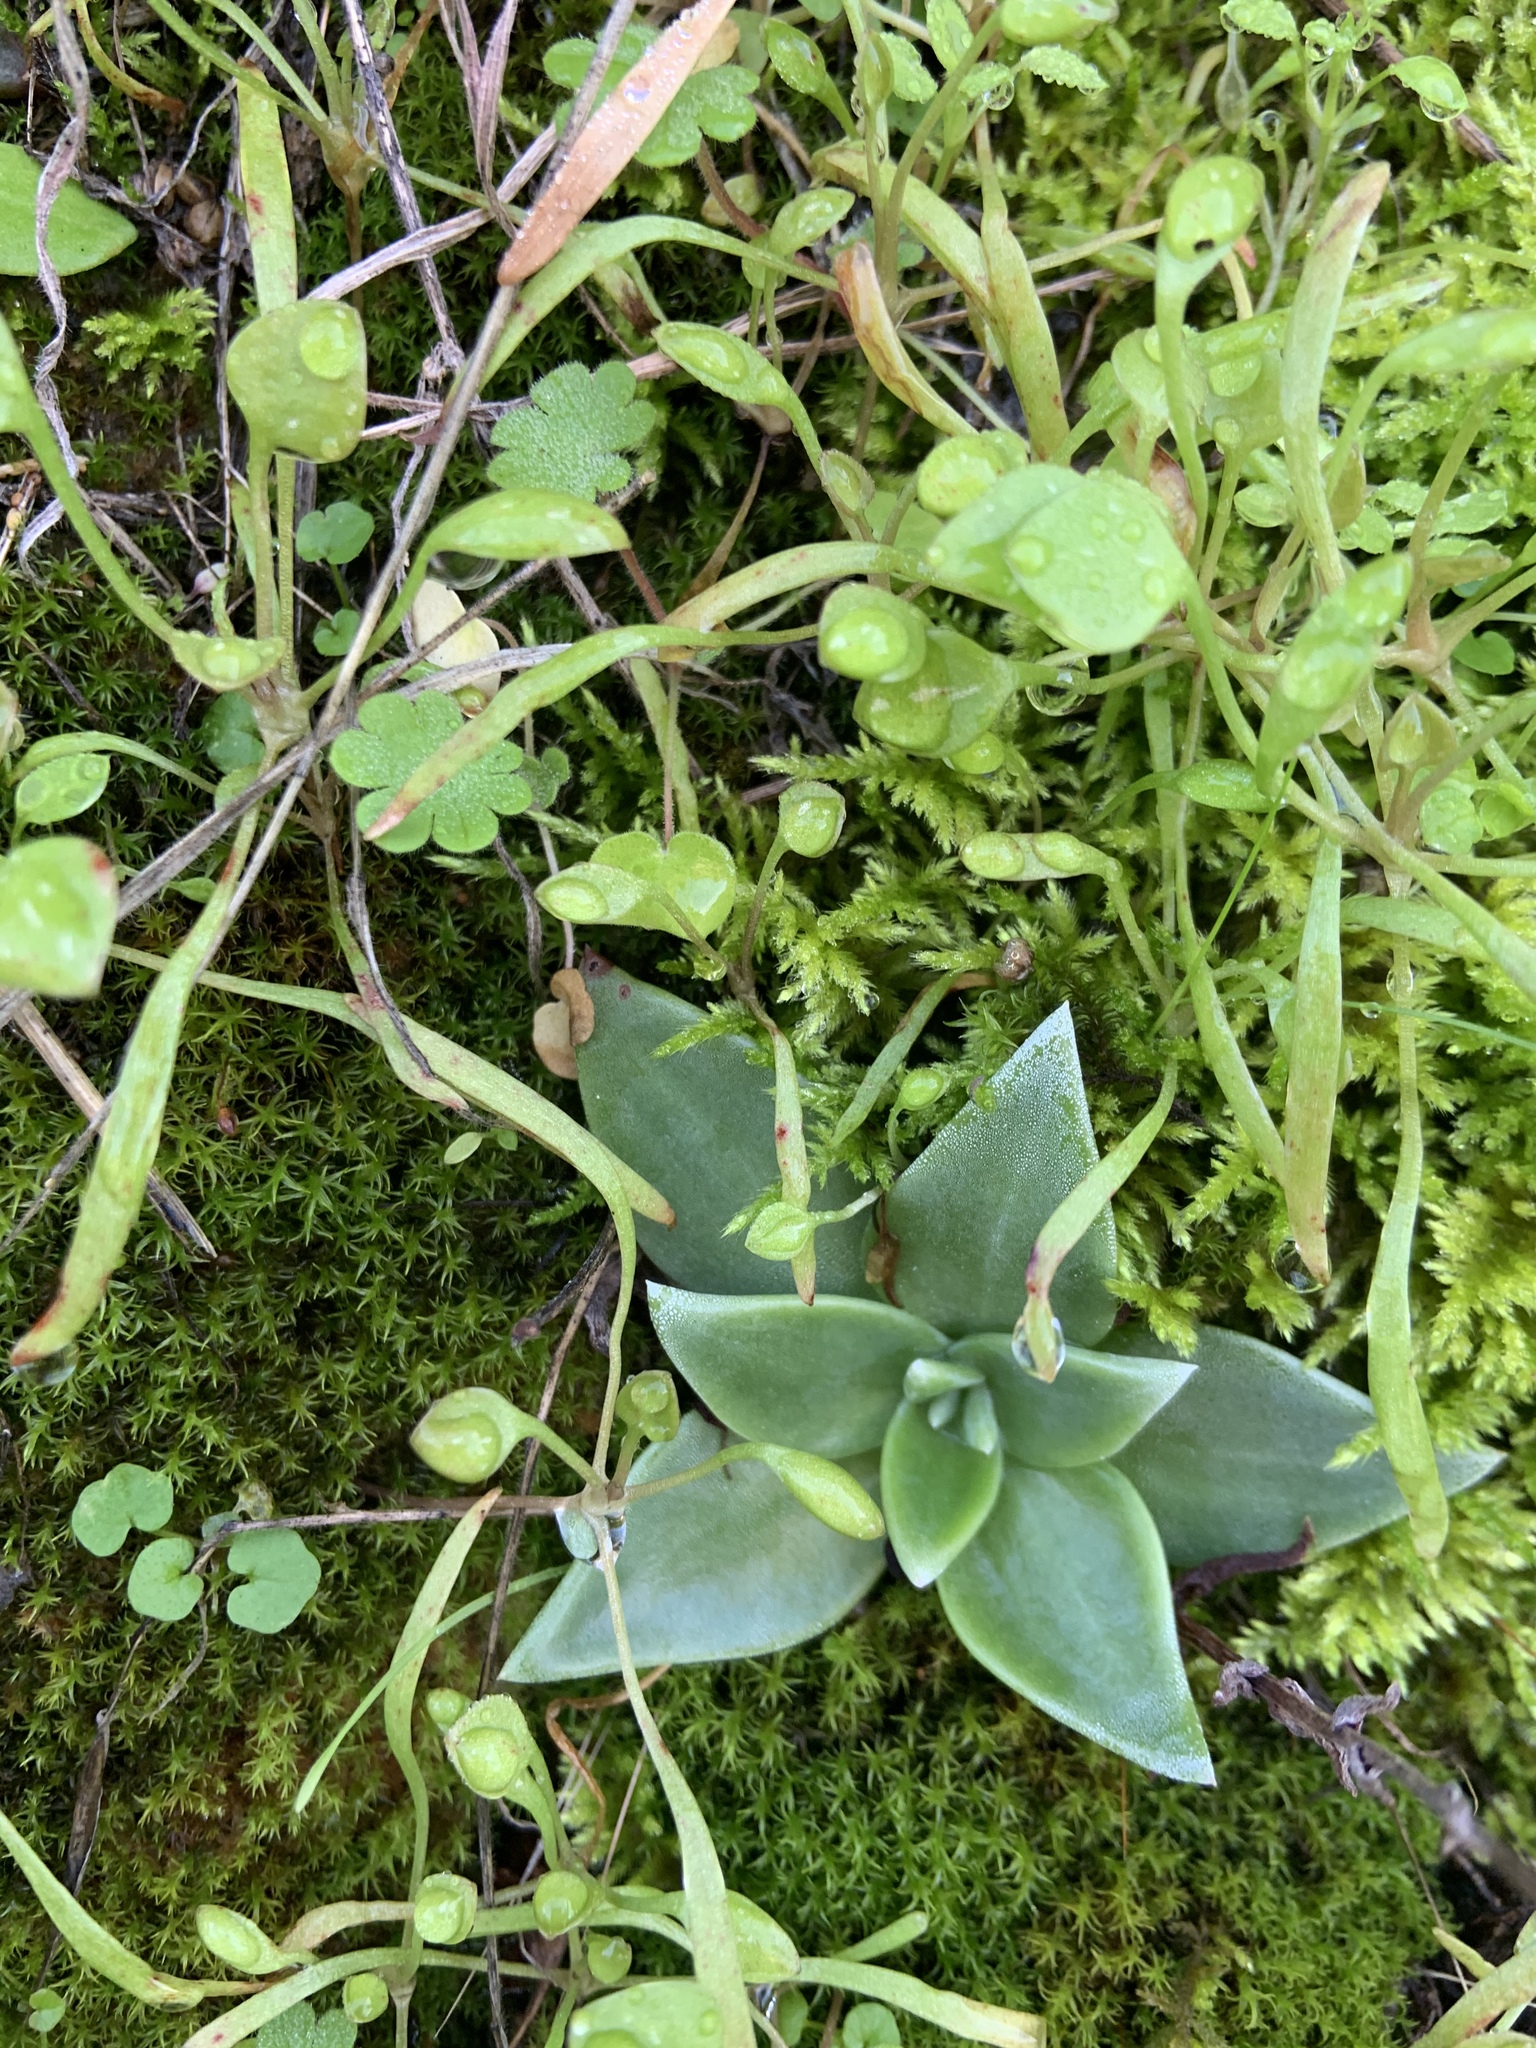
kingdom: Plantae
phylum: Tracheophyta
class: Magnoliopsida
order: Saxifragales
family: Crassulaceae
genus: Dudleya
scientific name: Dudleya cymosa
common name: Canyon dudleya
